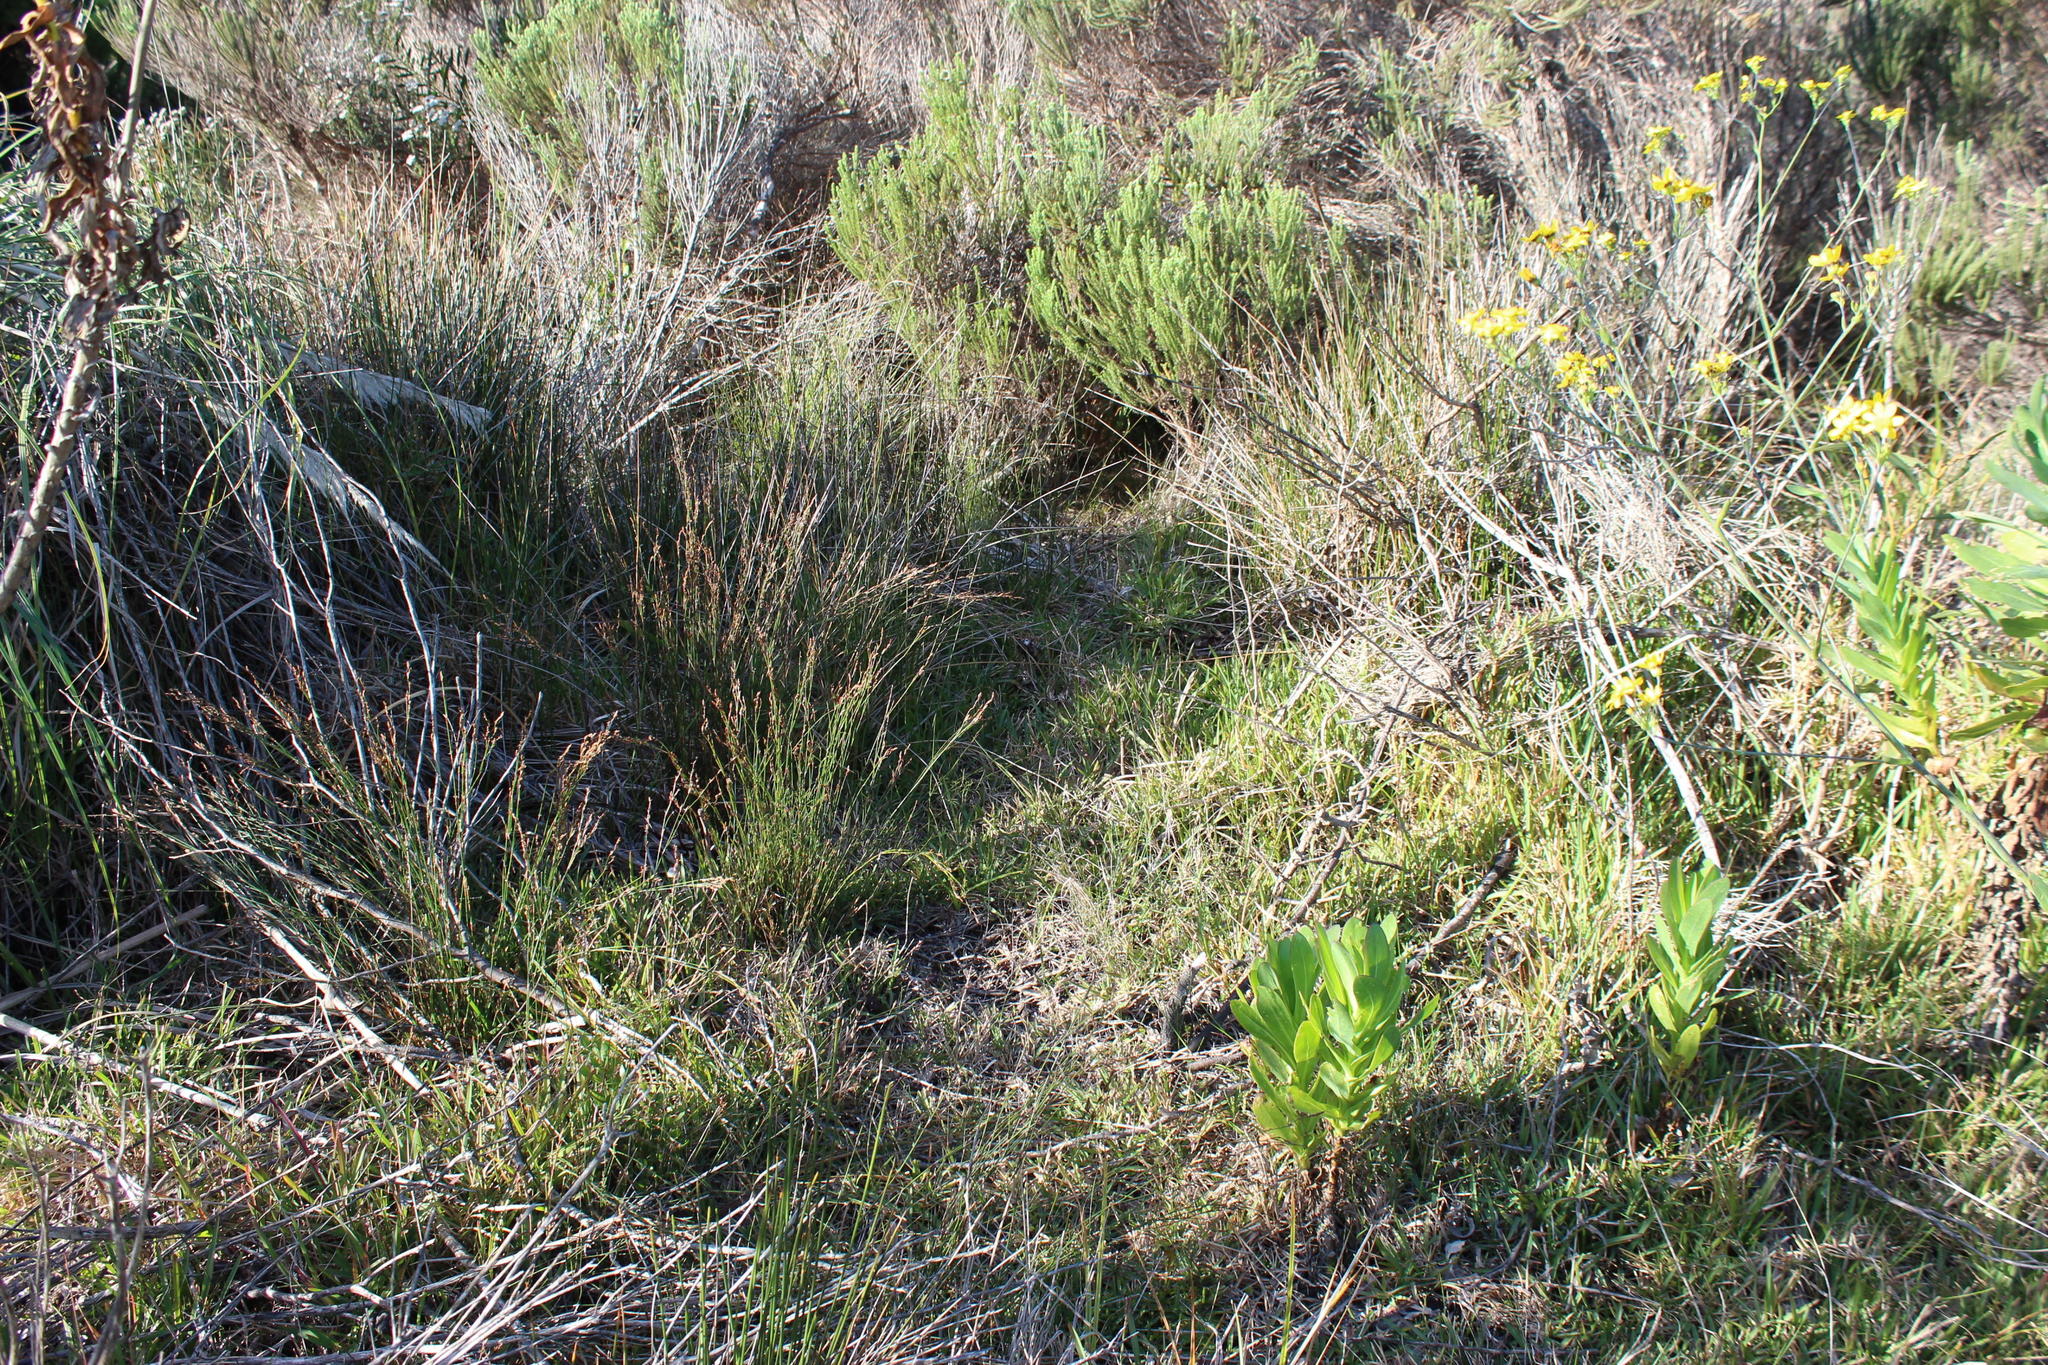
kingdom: Plantae
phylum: Tracheophyta
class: Liliopsida
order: Poales
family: Poaceae
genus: Stenotaphrum
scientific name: Stenotaphrum secundatum
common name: St. augustine grass
